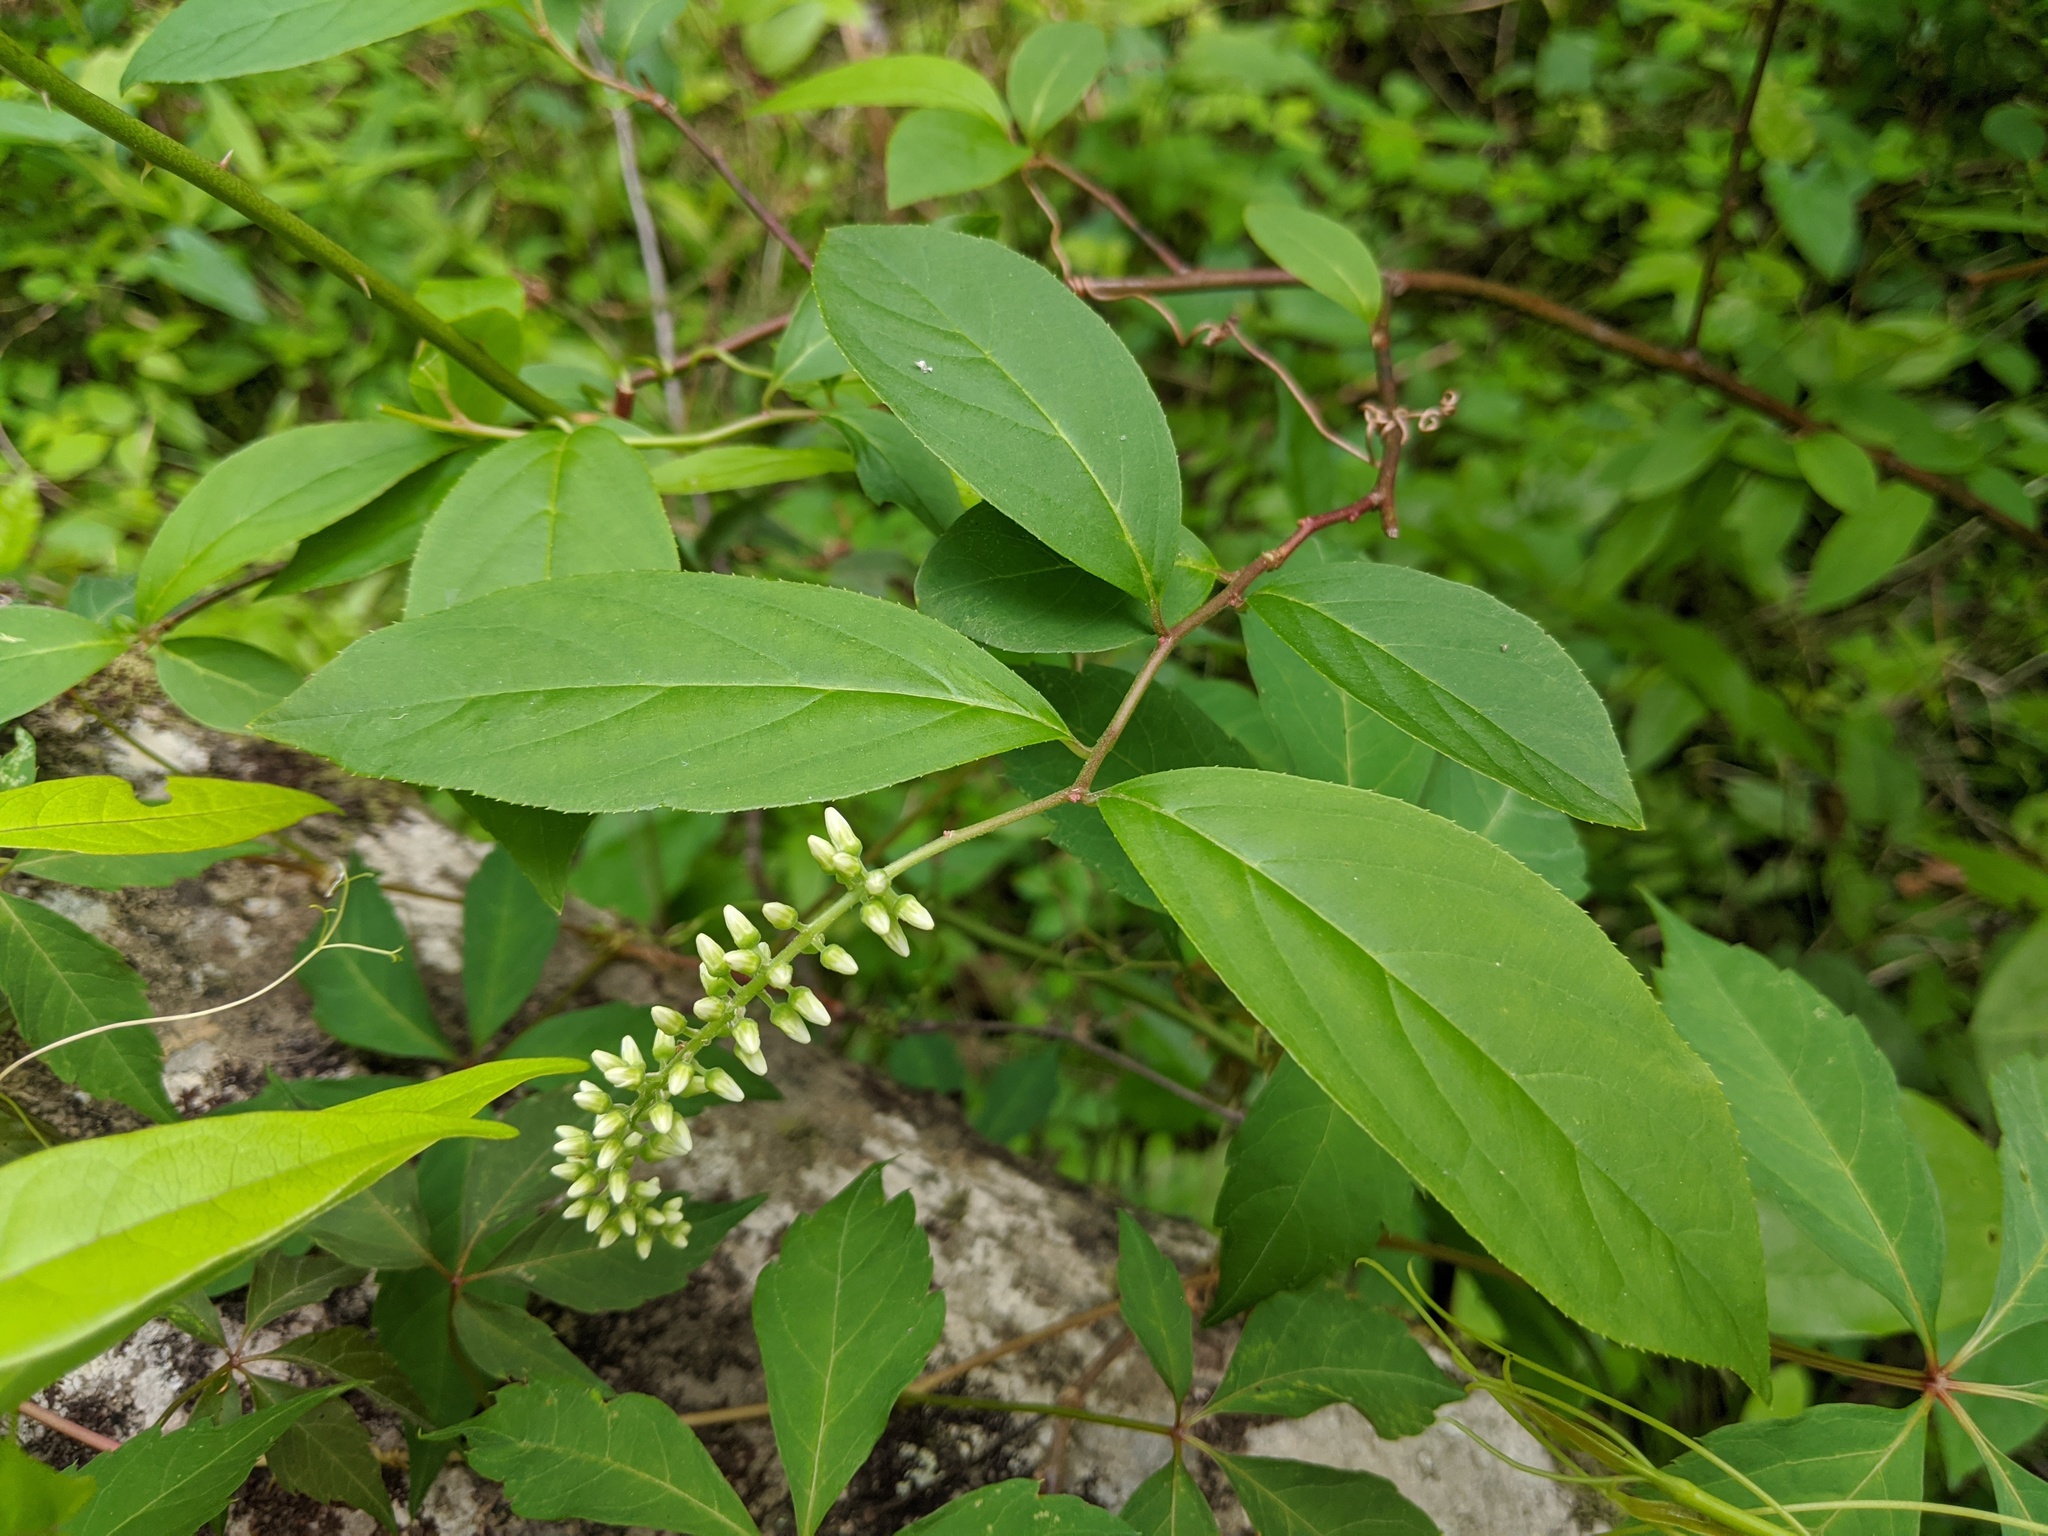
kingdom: Plantae
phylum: Tracheophyta
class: Magnoliopsida
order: Saxifragales
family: Iteaceae
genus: Itea
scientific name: Itea virginica
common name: Sweetspire
